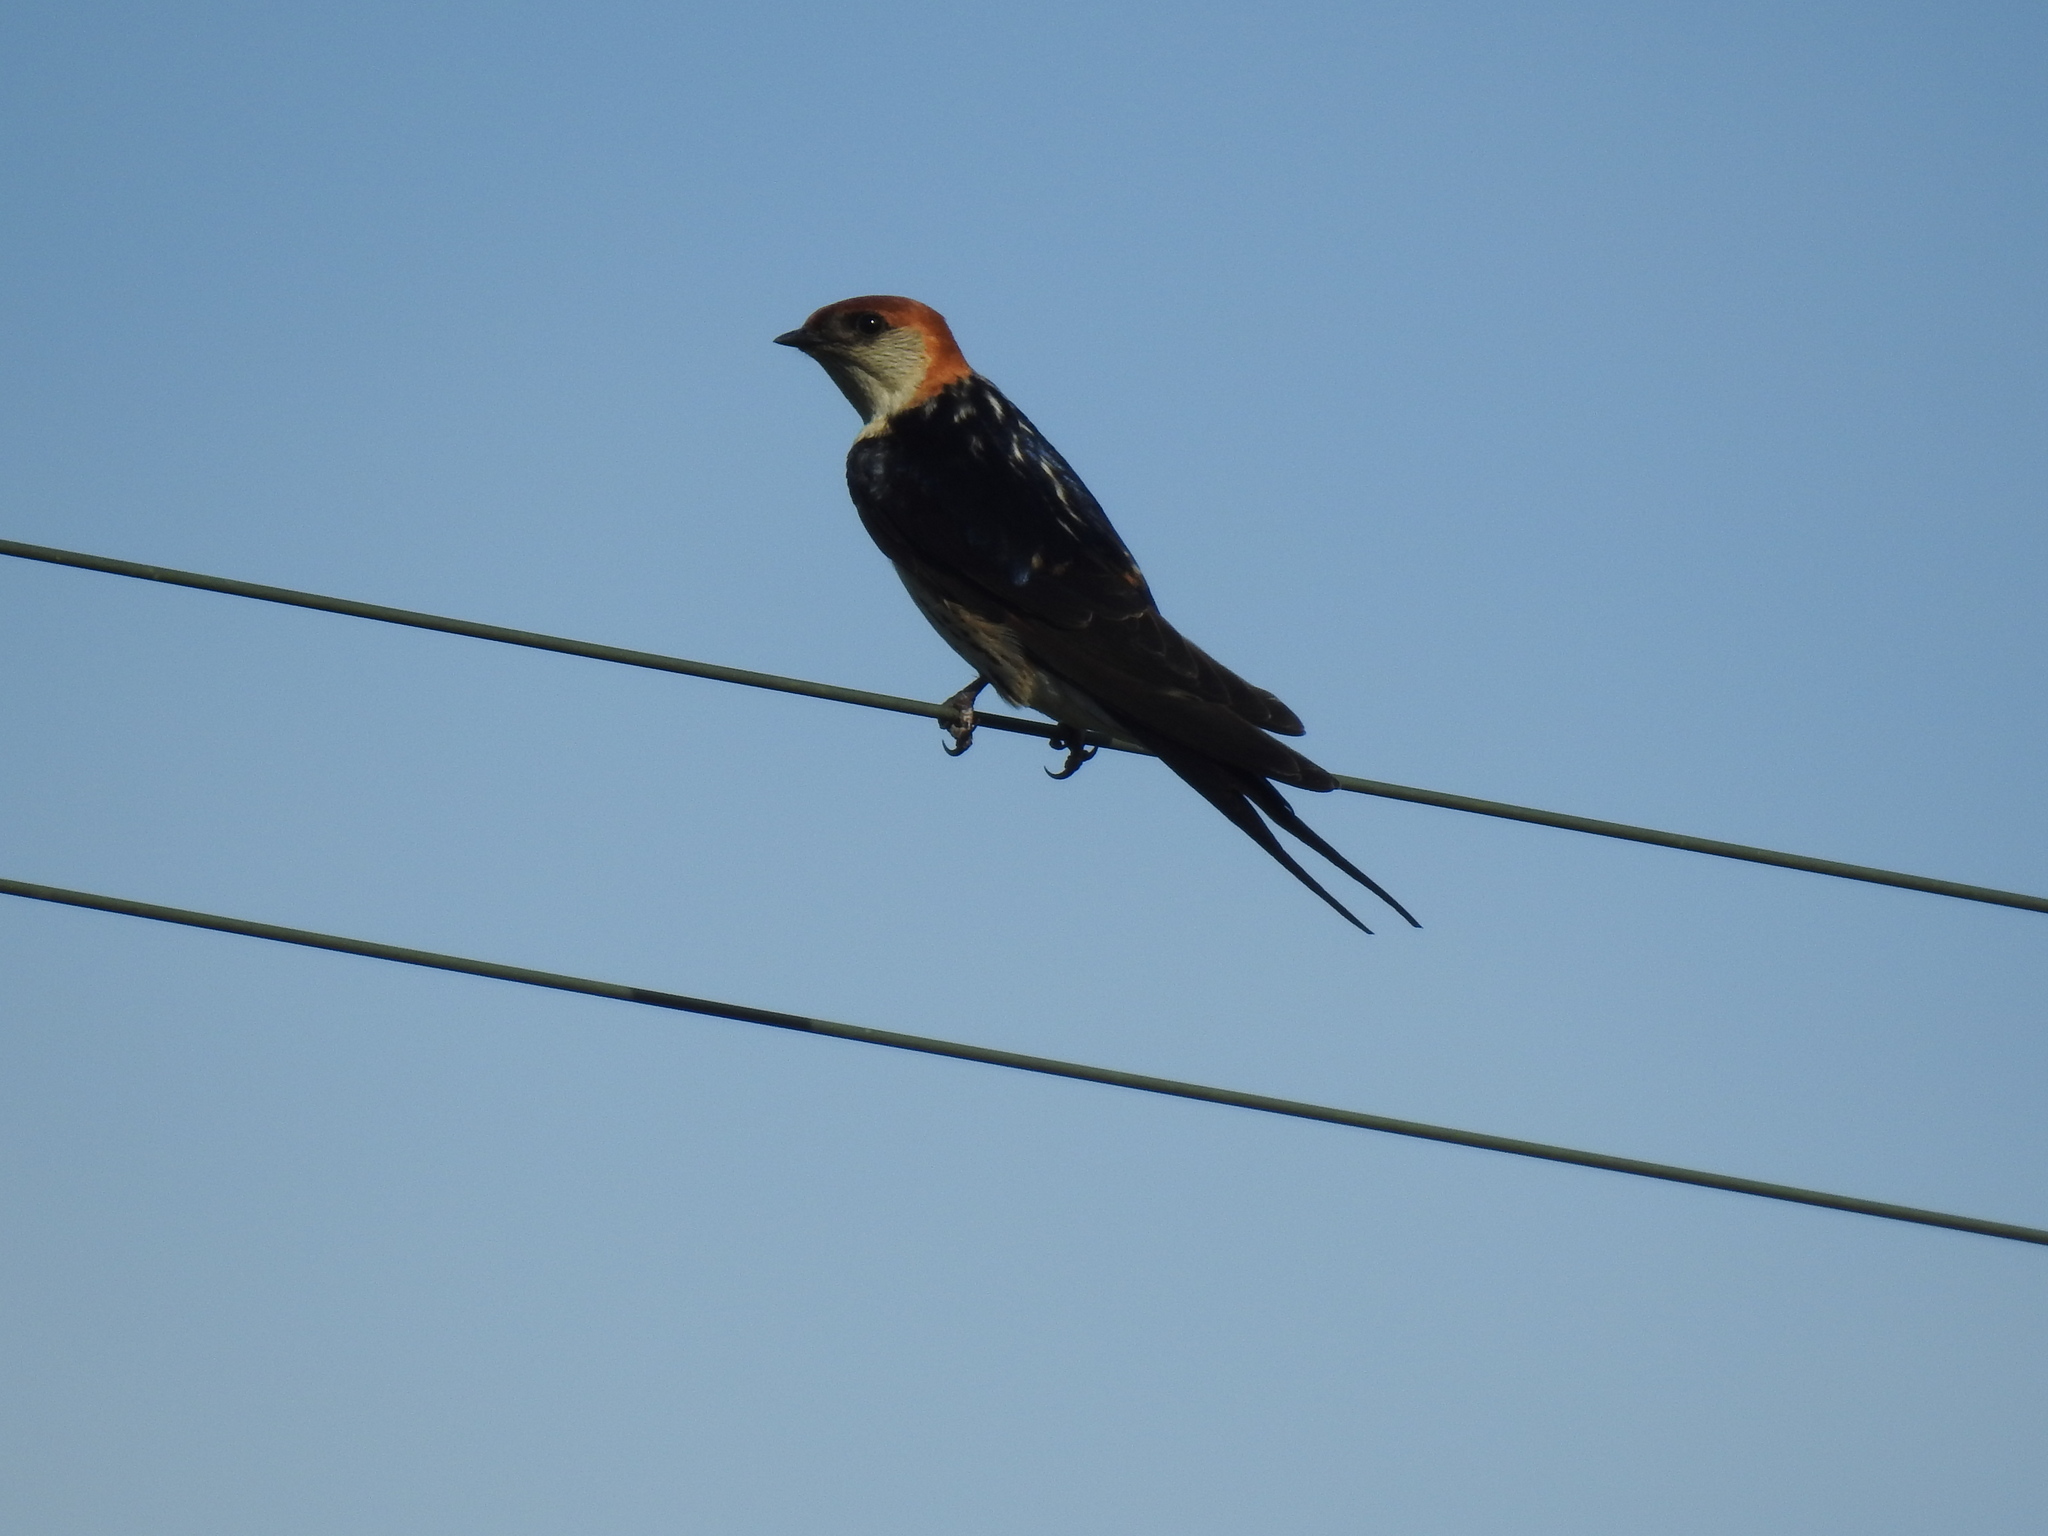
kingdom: Animalia
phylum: Chordata
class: Aves
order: Passeriformes
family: Hirundinidae
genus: Cecropis
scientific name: Cecropis cucullata
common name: Greater striped-swallow
